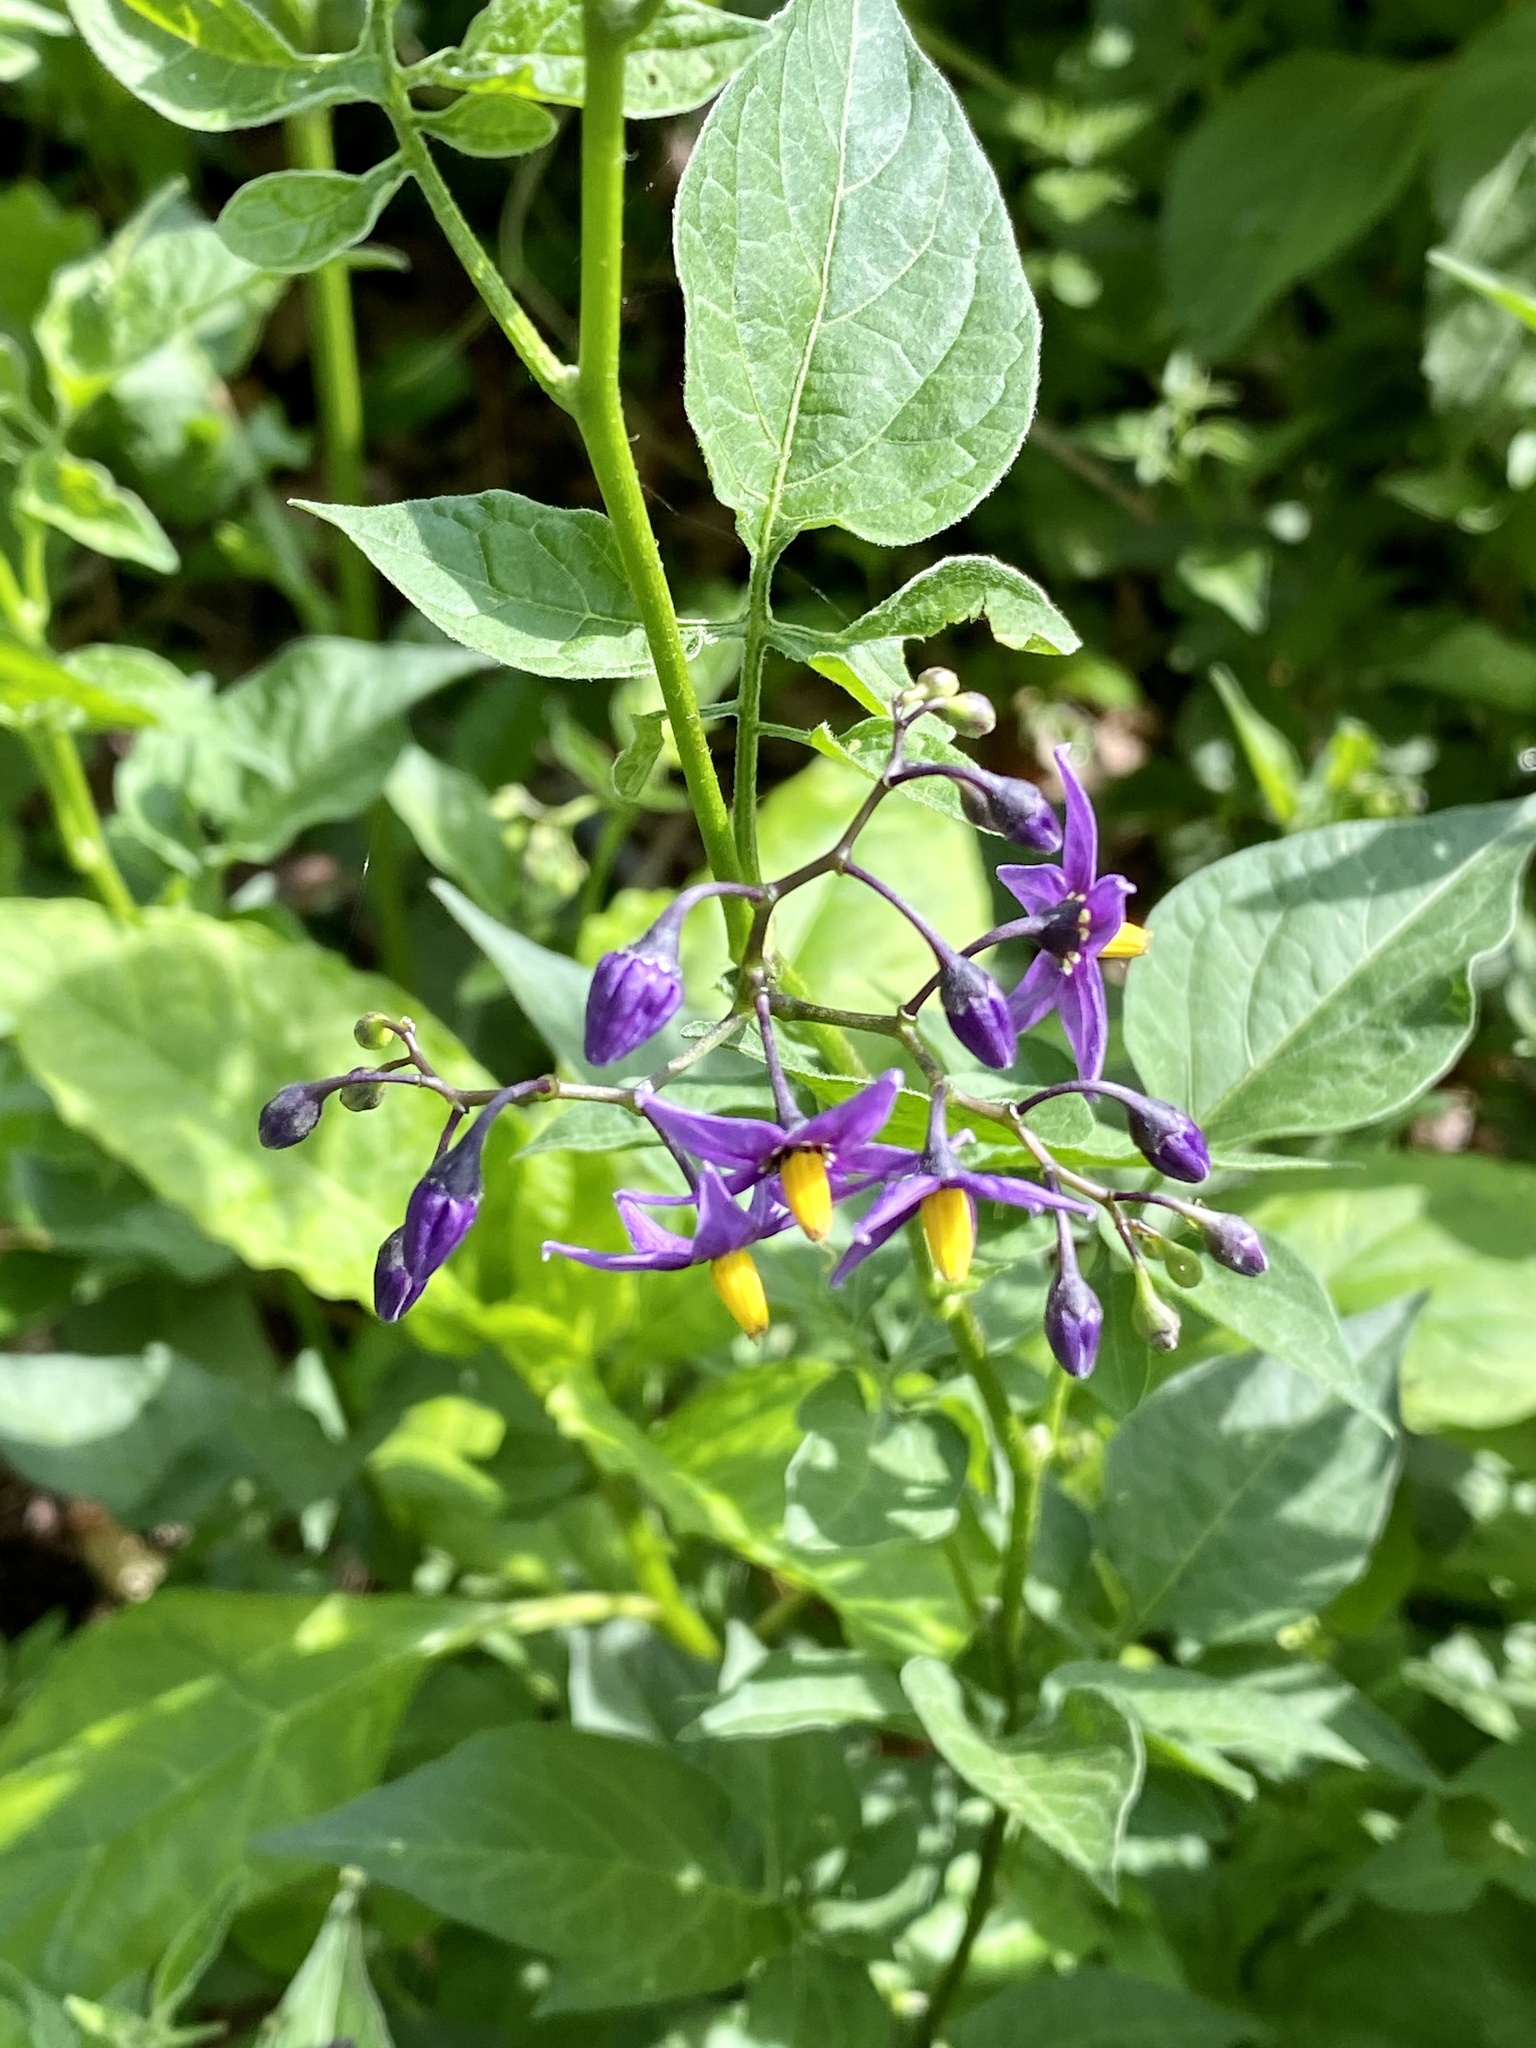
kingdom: Plantae
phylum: Tracheophyta
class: Magnoliopsida
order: Solanales
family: Solanaceae
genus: Solanum
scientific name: Solanum dulcamara
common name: Climbing nightshade
